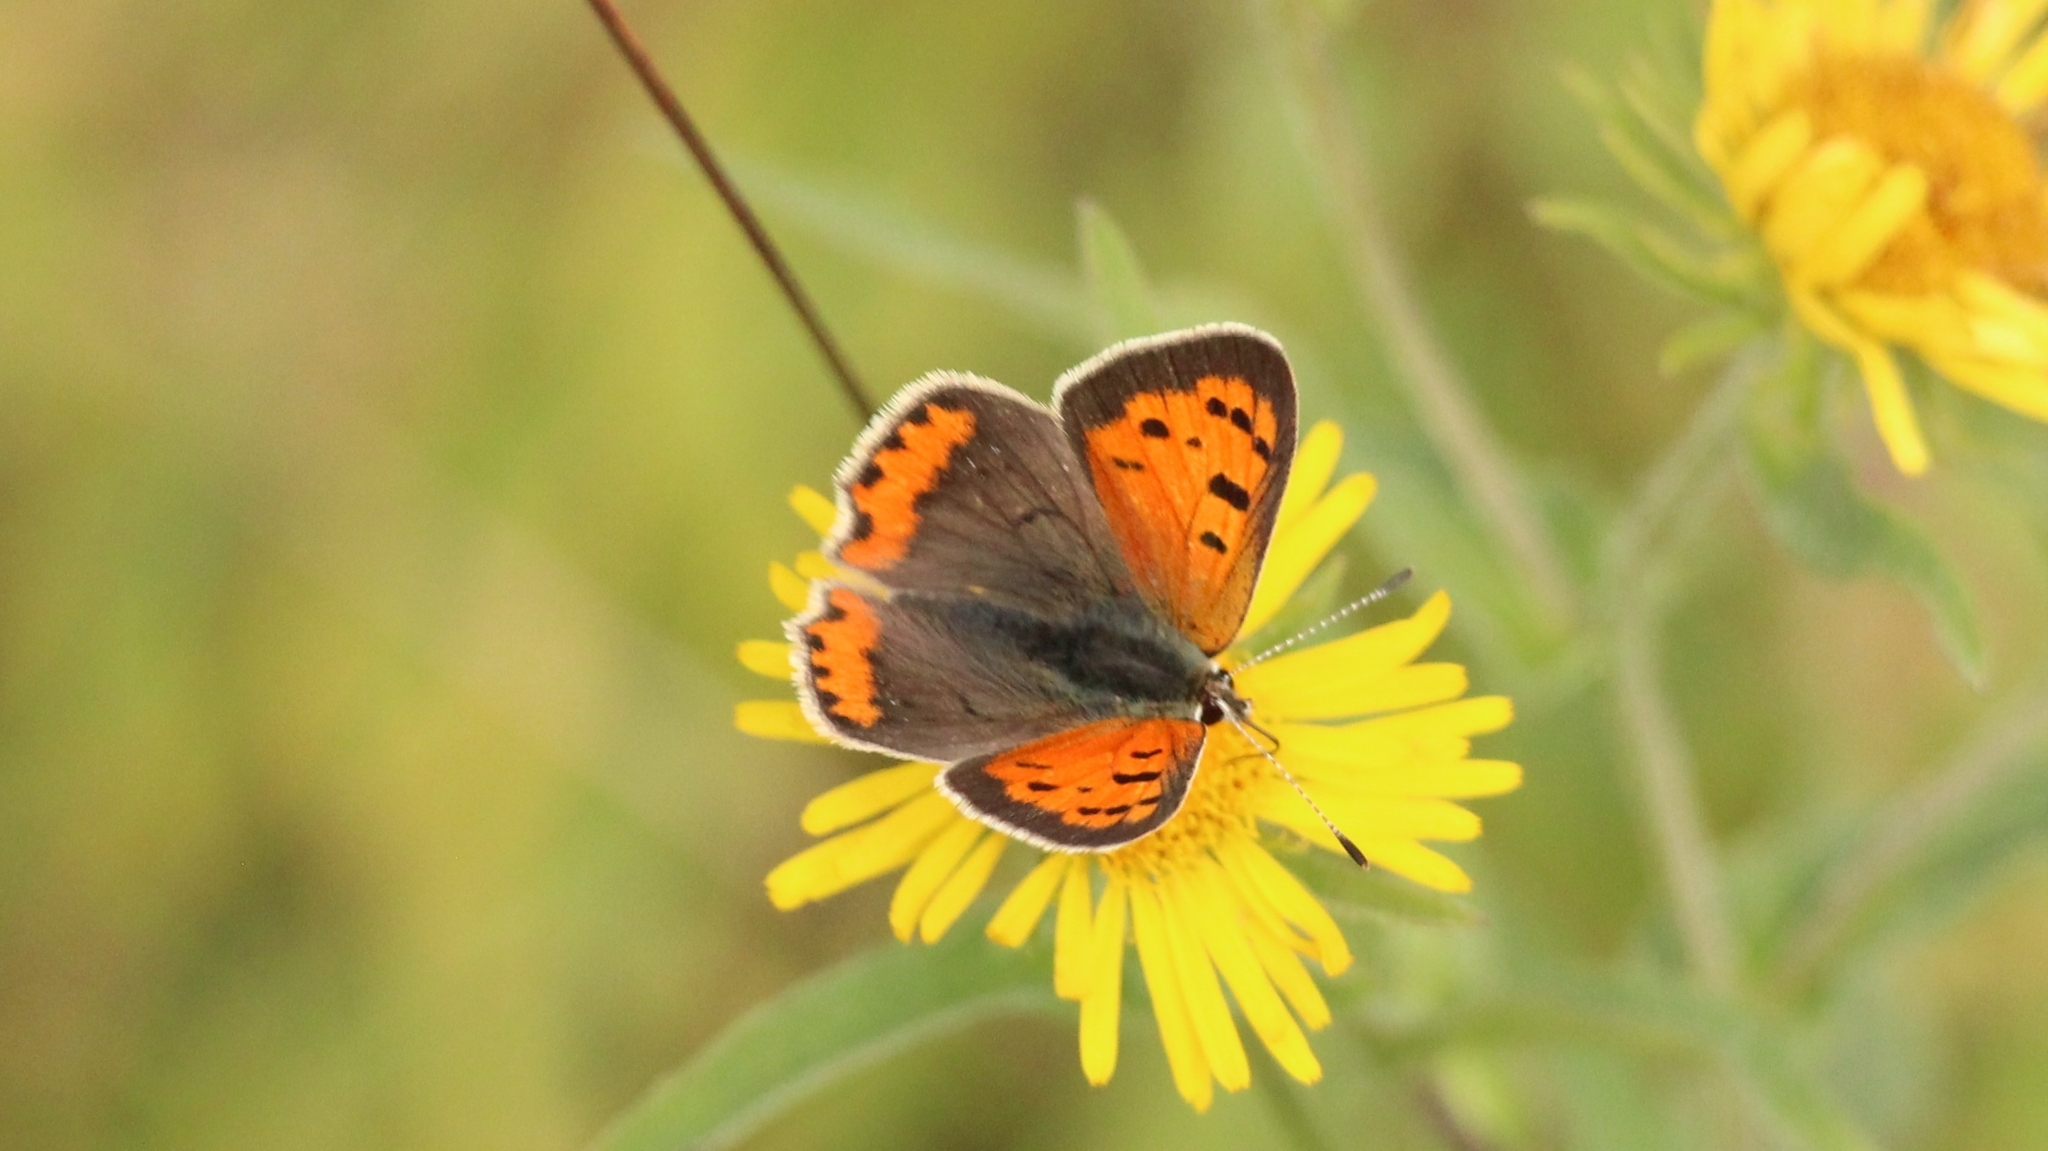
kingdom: Animalia
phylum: Arthropoda
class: Insecta
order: Lepidoptera
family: Lycaenidae
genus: Lycaena
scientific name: Lycaena phlaeas
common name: Small copper
